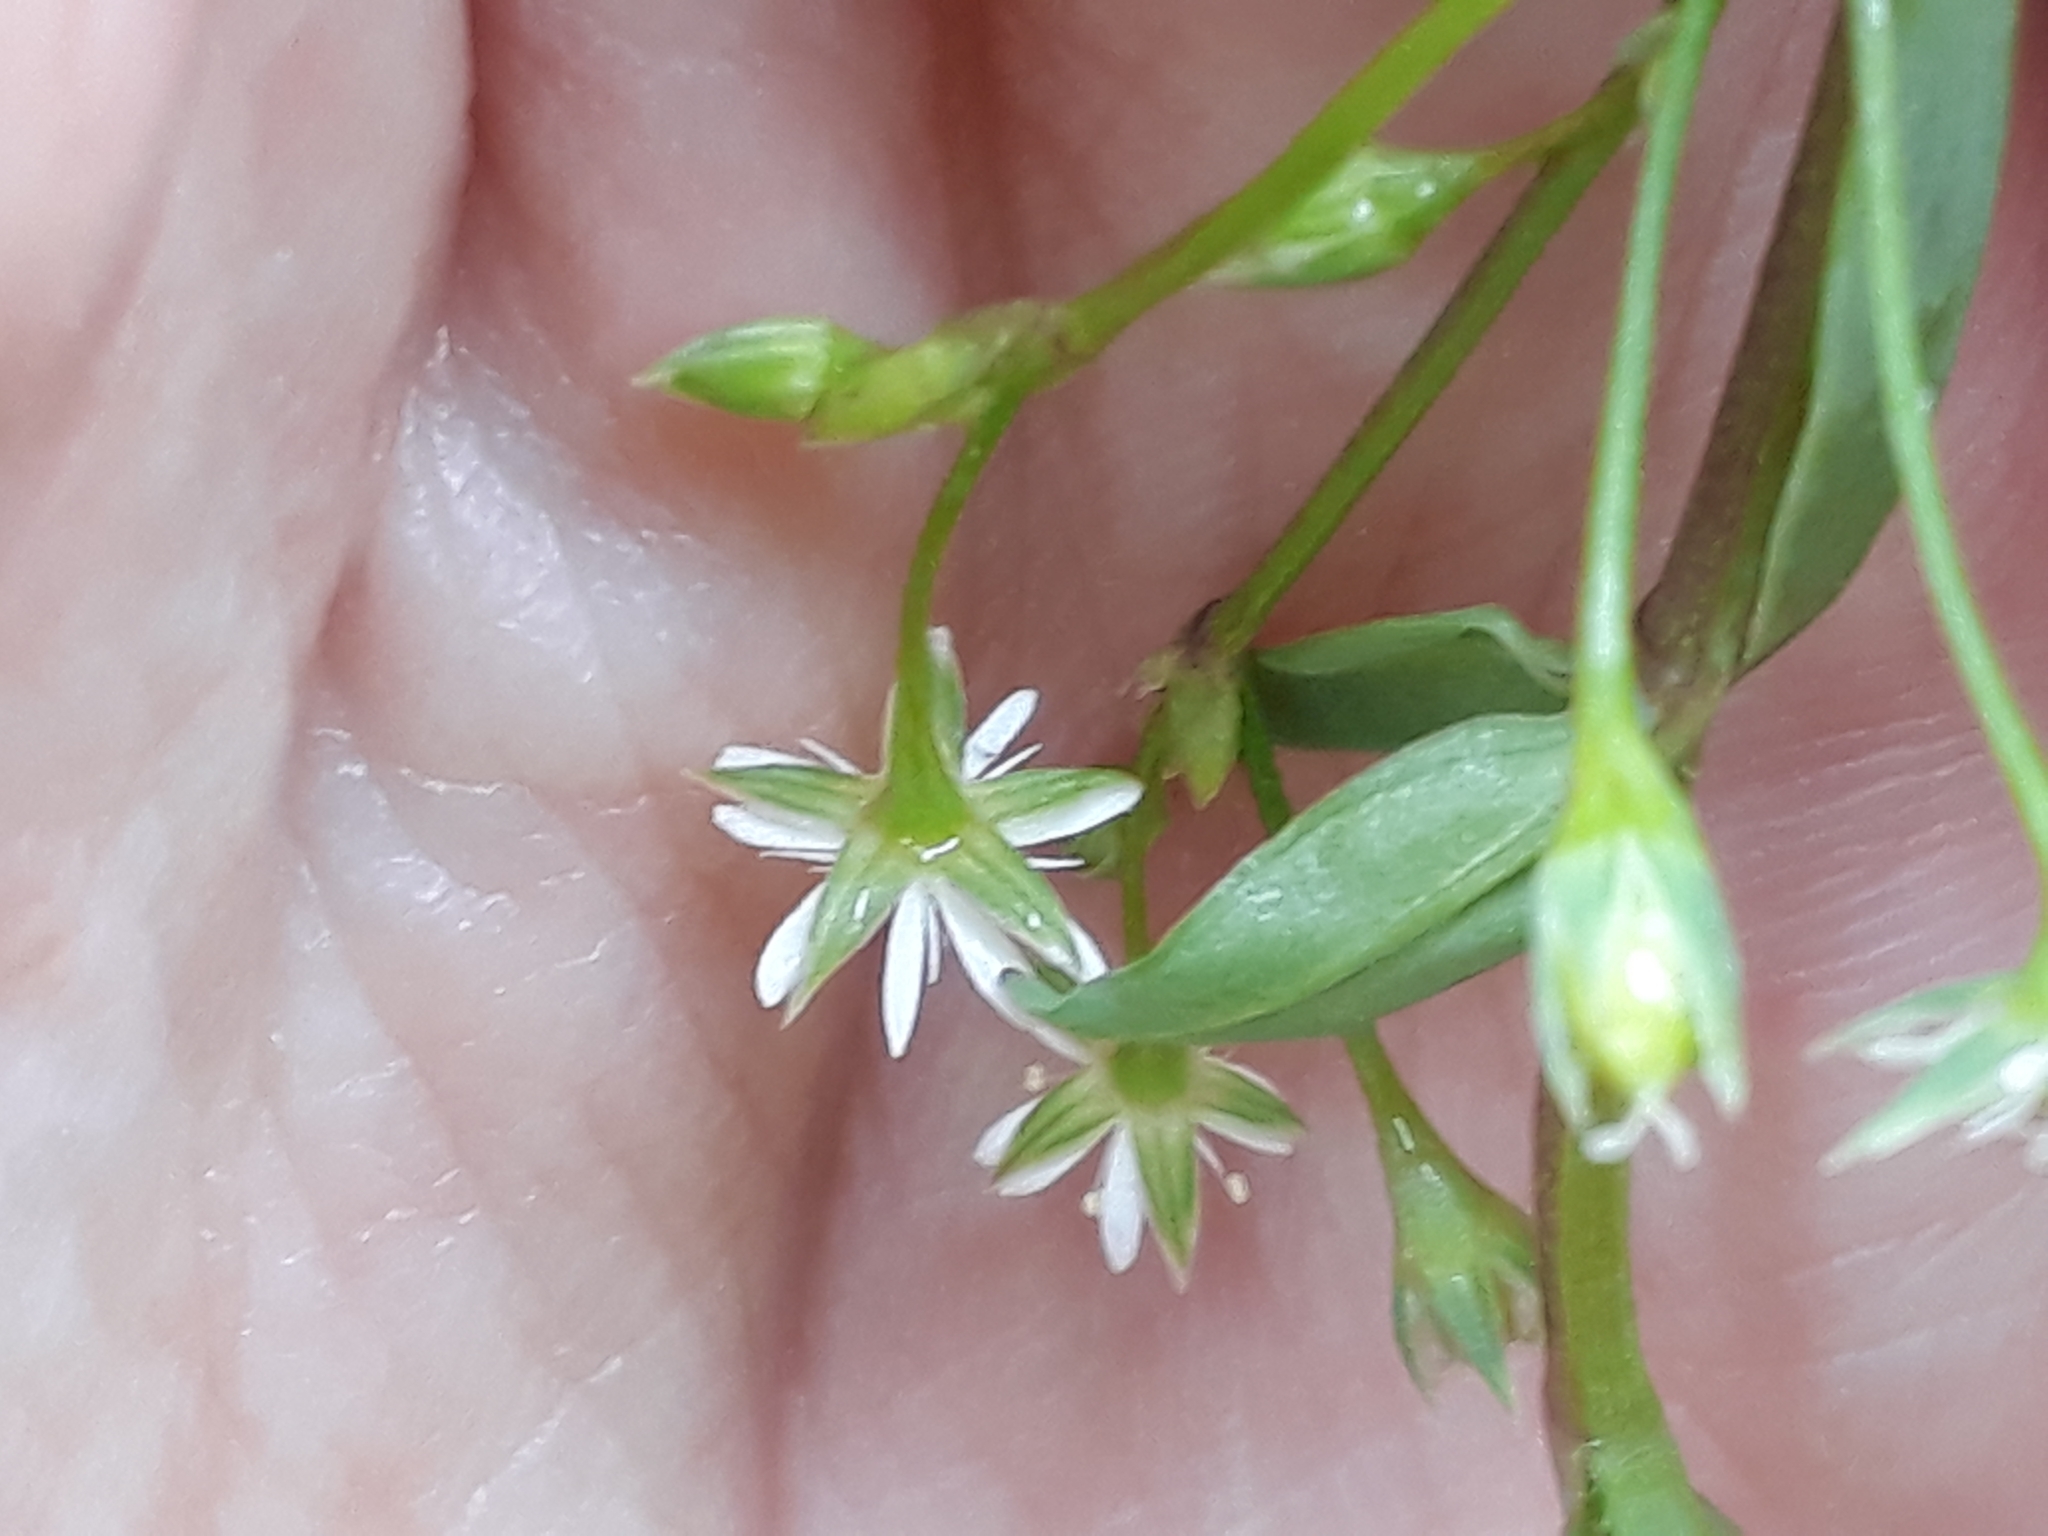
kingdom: Plantae
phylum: Tracheophyta
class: Magnoliopsida
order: Caryophyllales
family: Caryophyllaceae
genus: Stellaria
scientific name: Stellaria alsine
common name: Bog stitchwort
